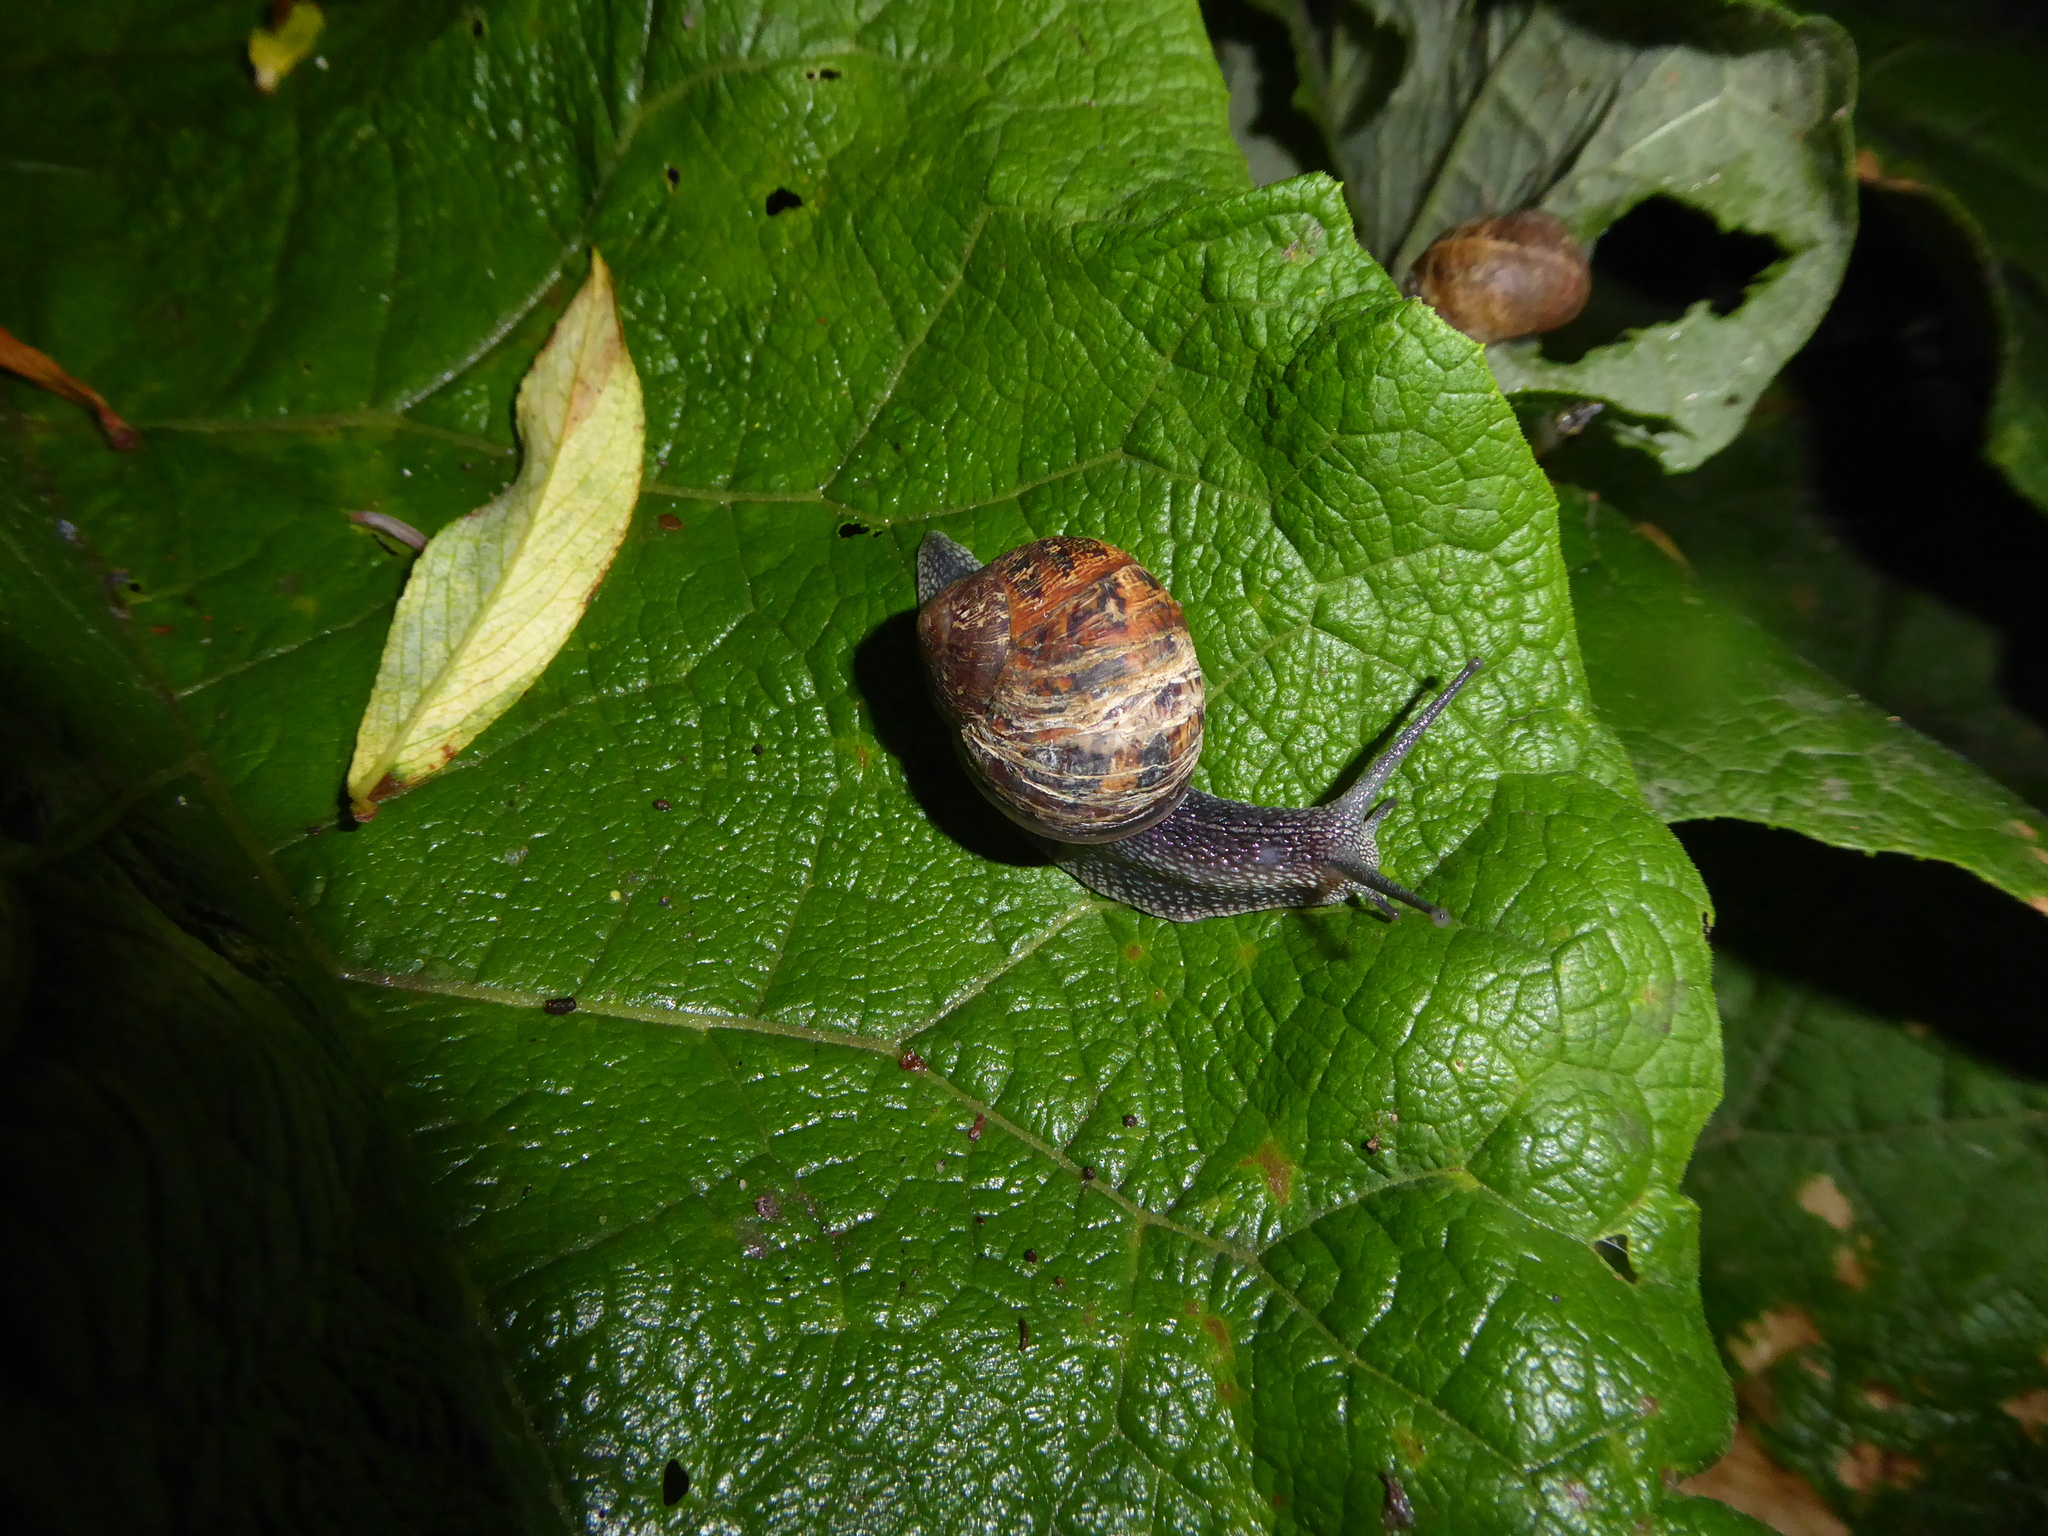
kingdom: Animalia
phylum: Mollusca
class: Gastropoda
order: Stylommatophora
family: Helicidae
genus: Cornu
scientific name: Cornu aspersum
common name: Brown garden snail
